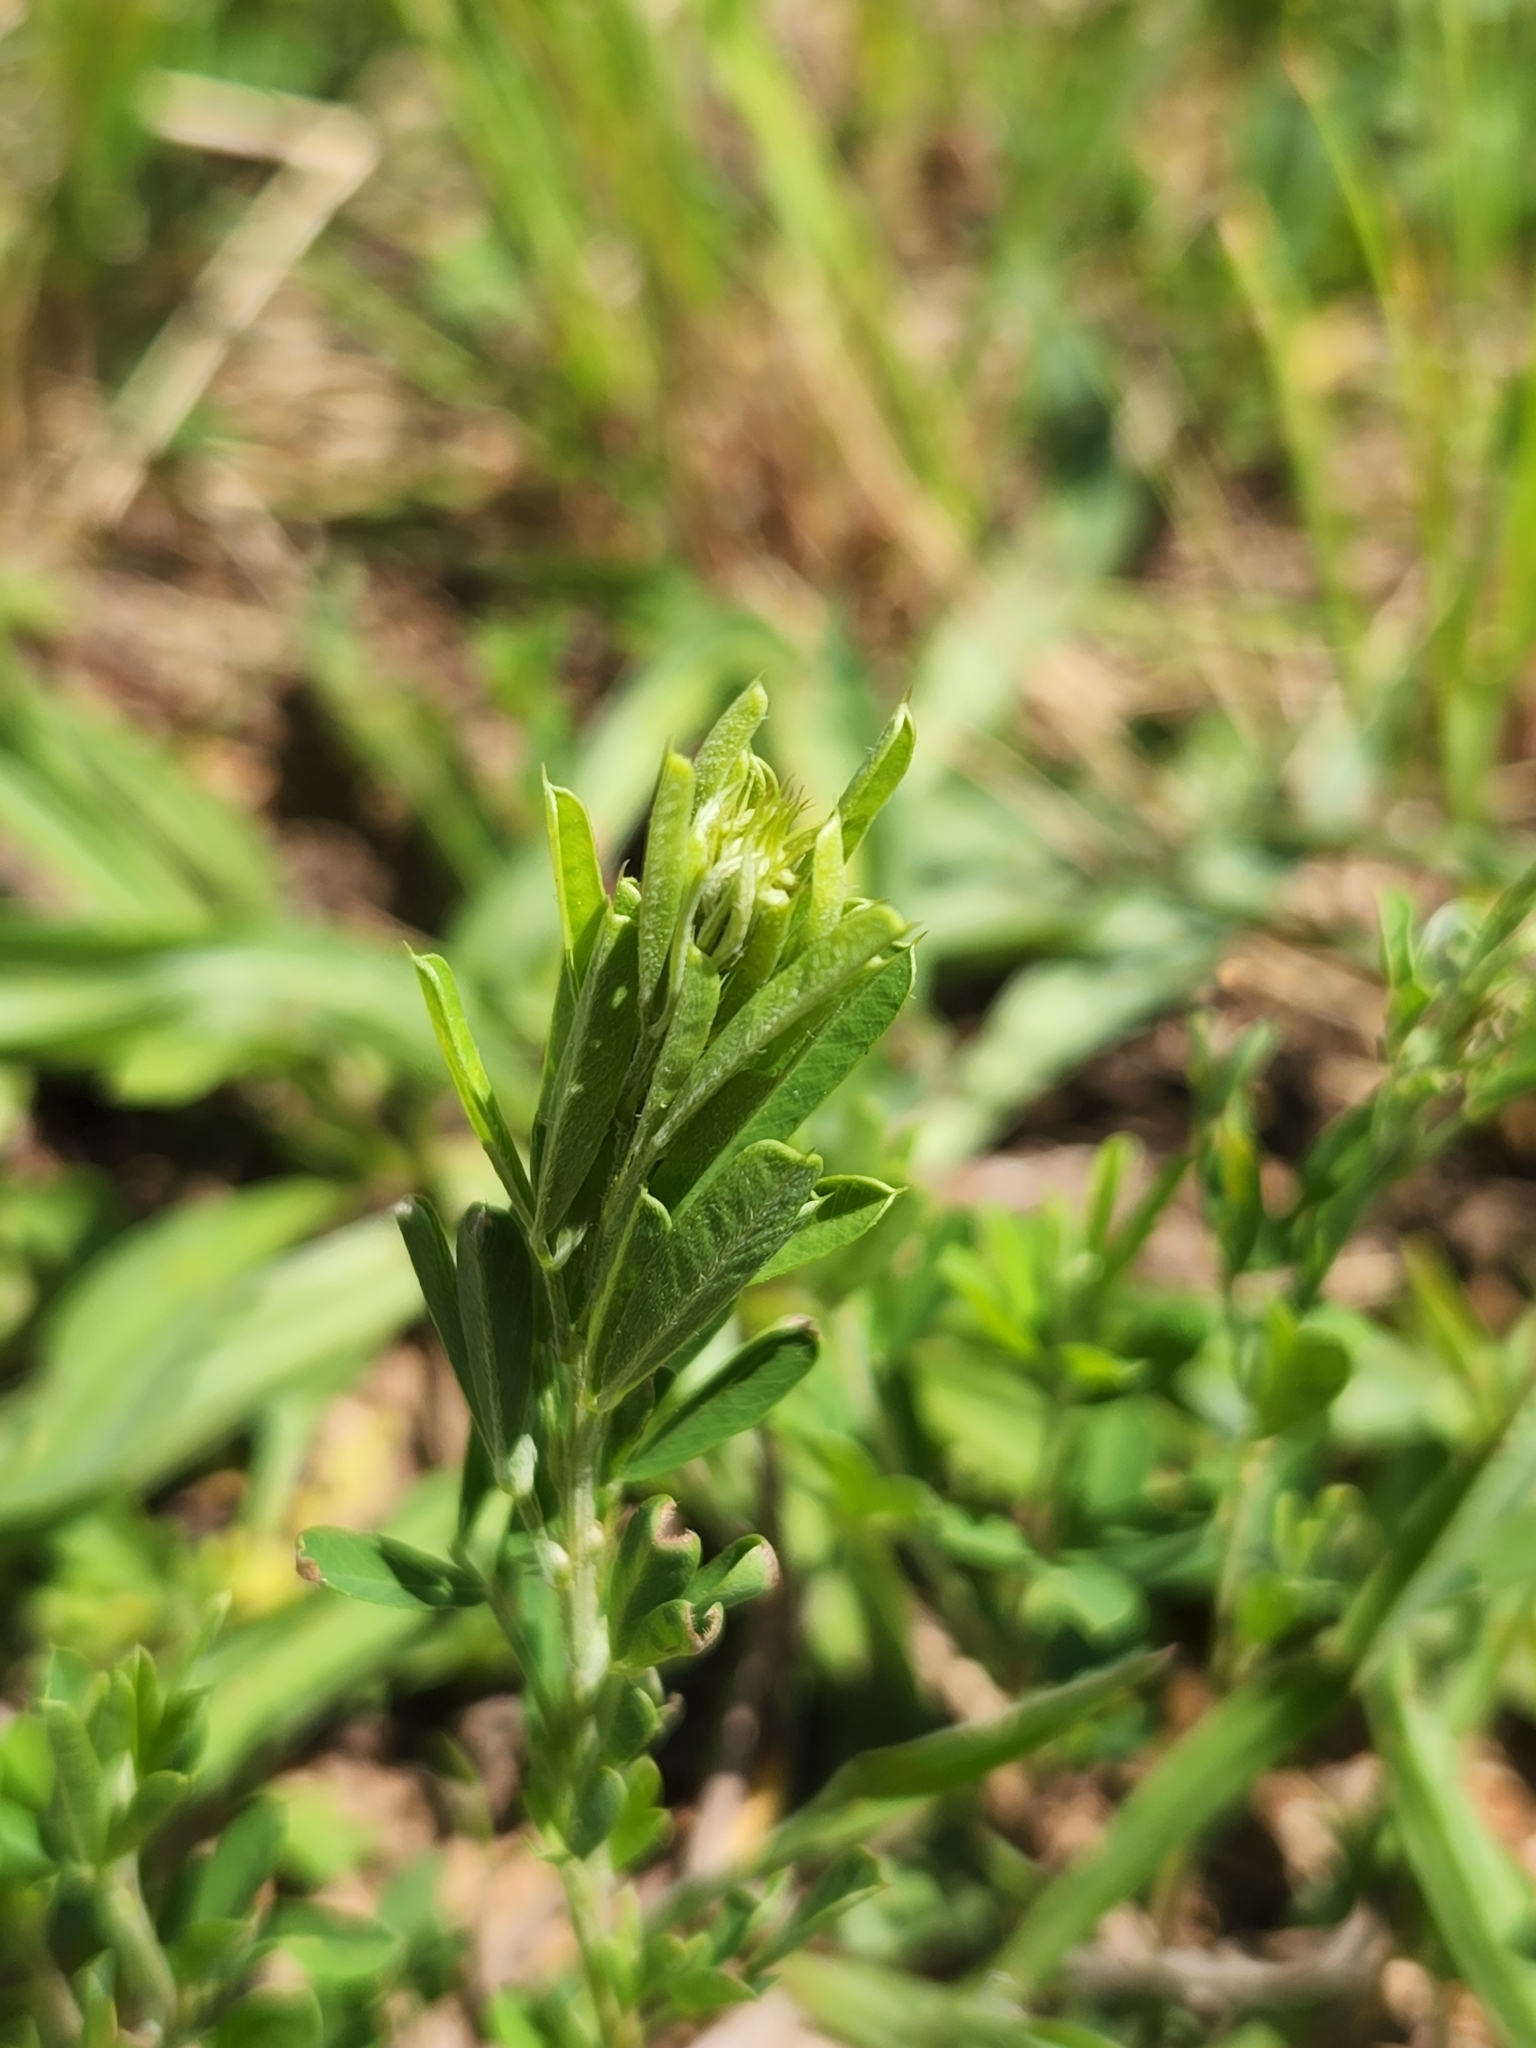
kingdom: Plantae
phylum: Tracheophyta
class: Magnoliopsida
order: Fabales
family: Fabaceae
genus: Lespedeza
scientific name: Lespedeza cuneata
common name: Chinese bush-clover
